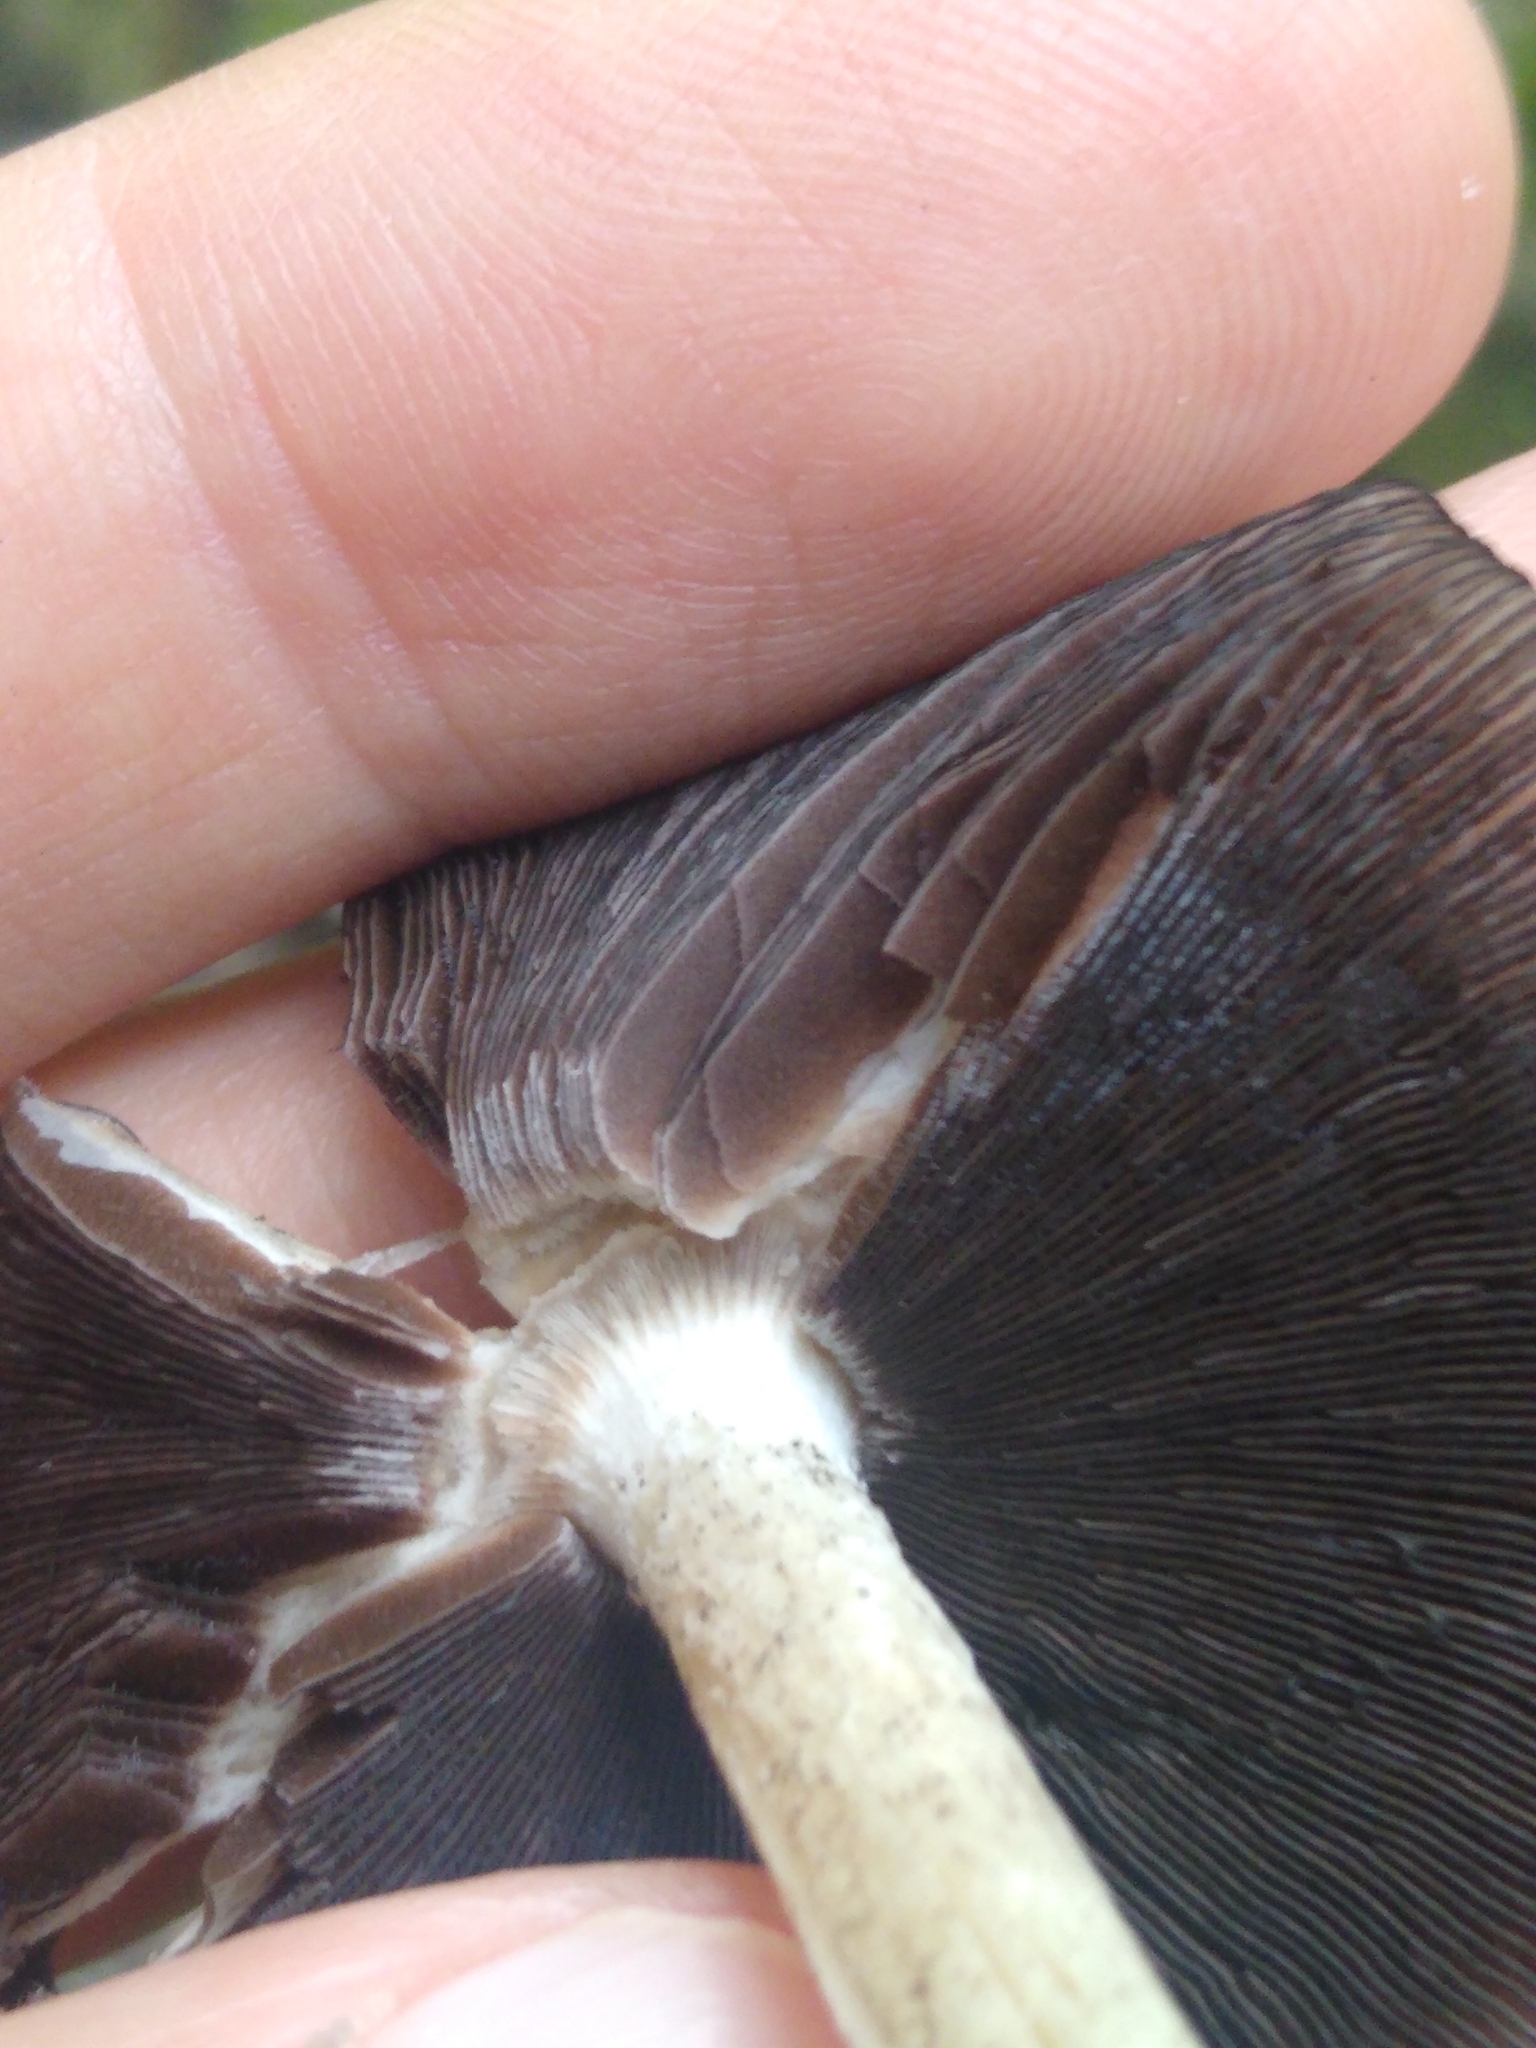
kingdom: Fungi
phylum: Basidiomycota
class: Agaricomycetes
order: Agaricales
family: Psathyrellaceae
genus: Coprinopsis
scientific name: Coprinopsis variegata
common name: Scaly ink cap
